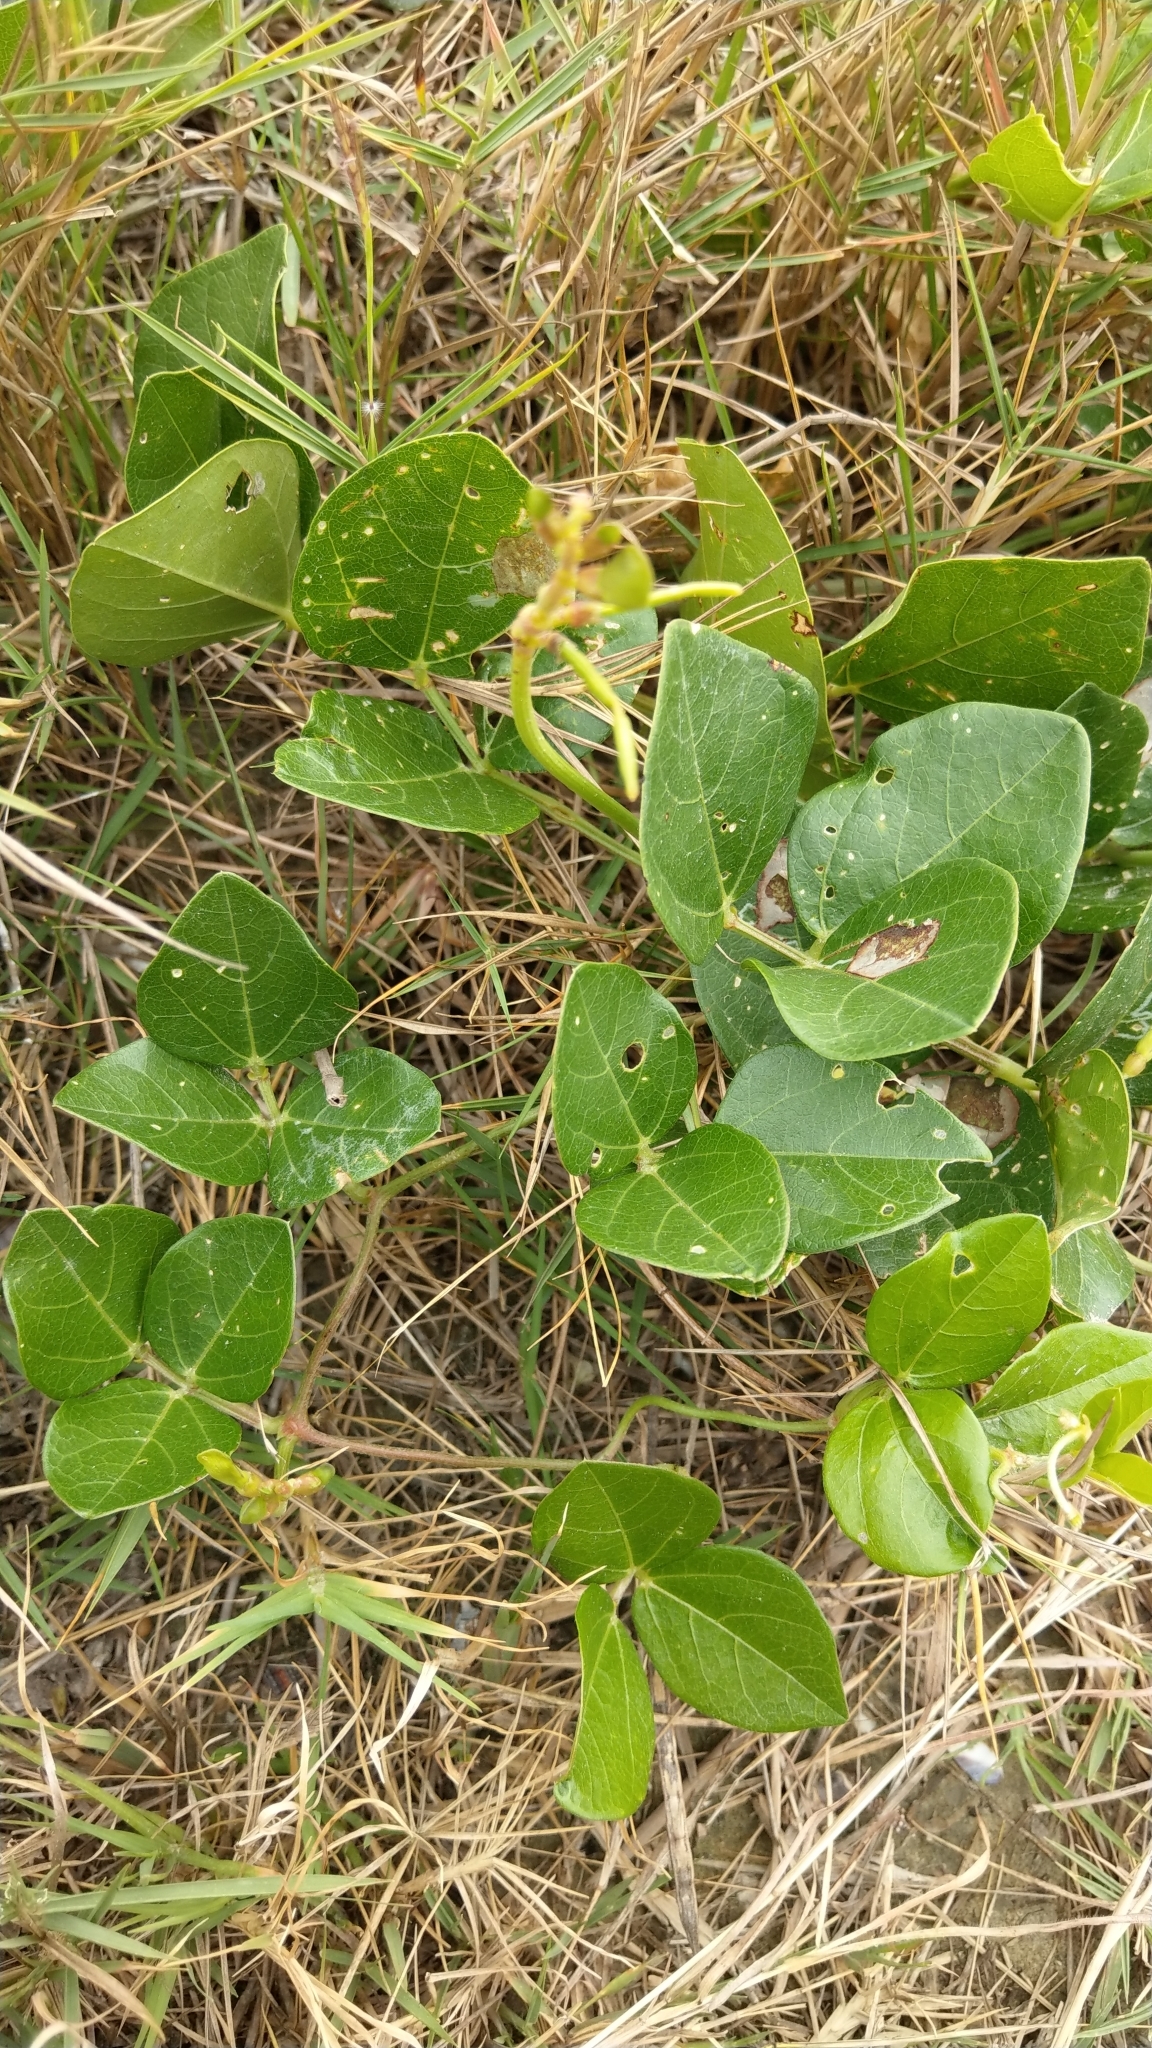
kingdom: Plantae
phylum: Tracheophyta
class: Magnoliopsida
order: Fabales
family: Fabaceae
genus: Vigna
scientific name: Vigna marina
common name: Dune-bean
